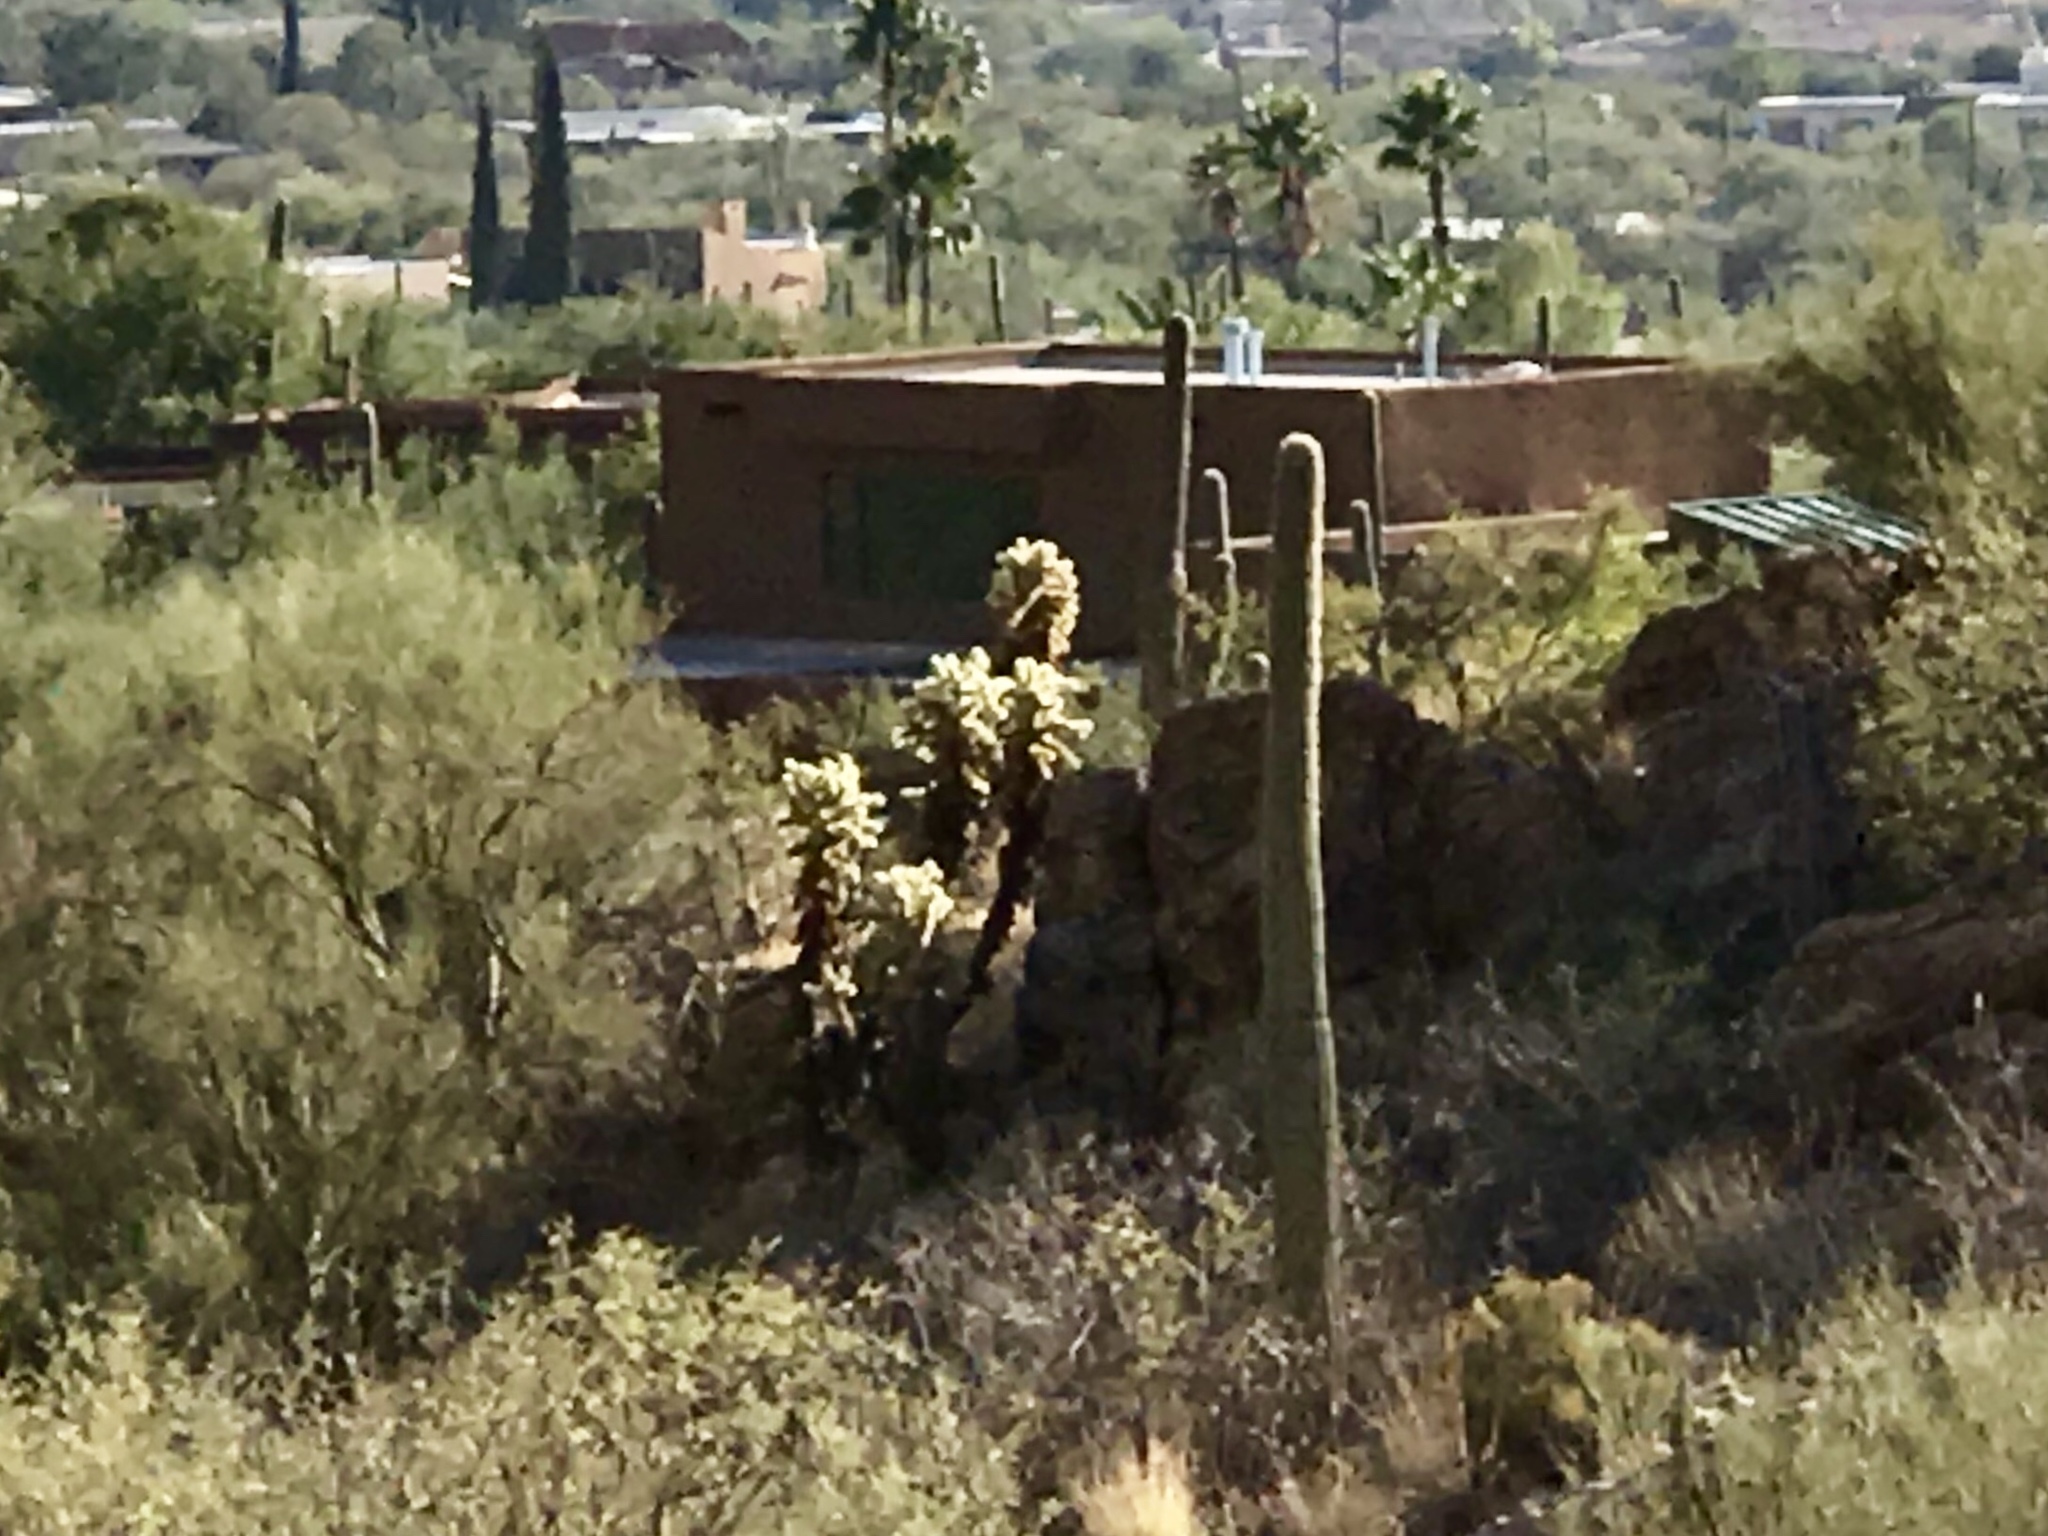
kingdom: Plantae
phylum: Tracheophyta
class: Magnoliopsida
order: Caryophyllales
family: Cactaceae
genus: Carnegiea
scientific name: Carnegiea gigantea
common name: Saguaro
